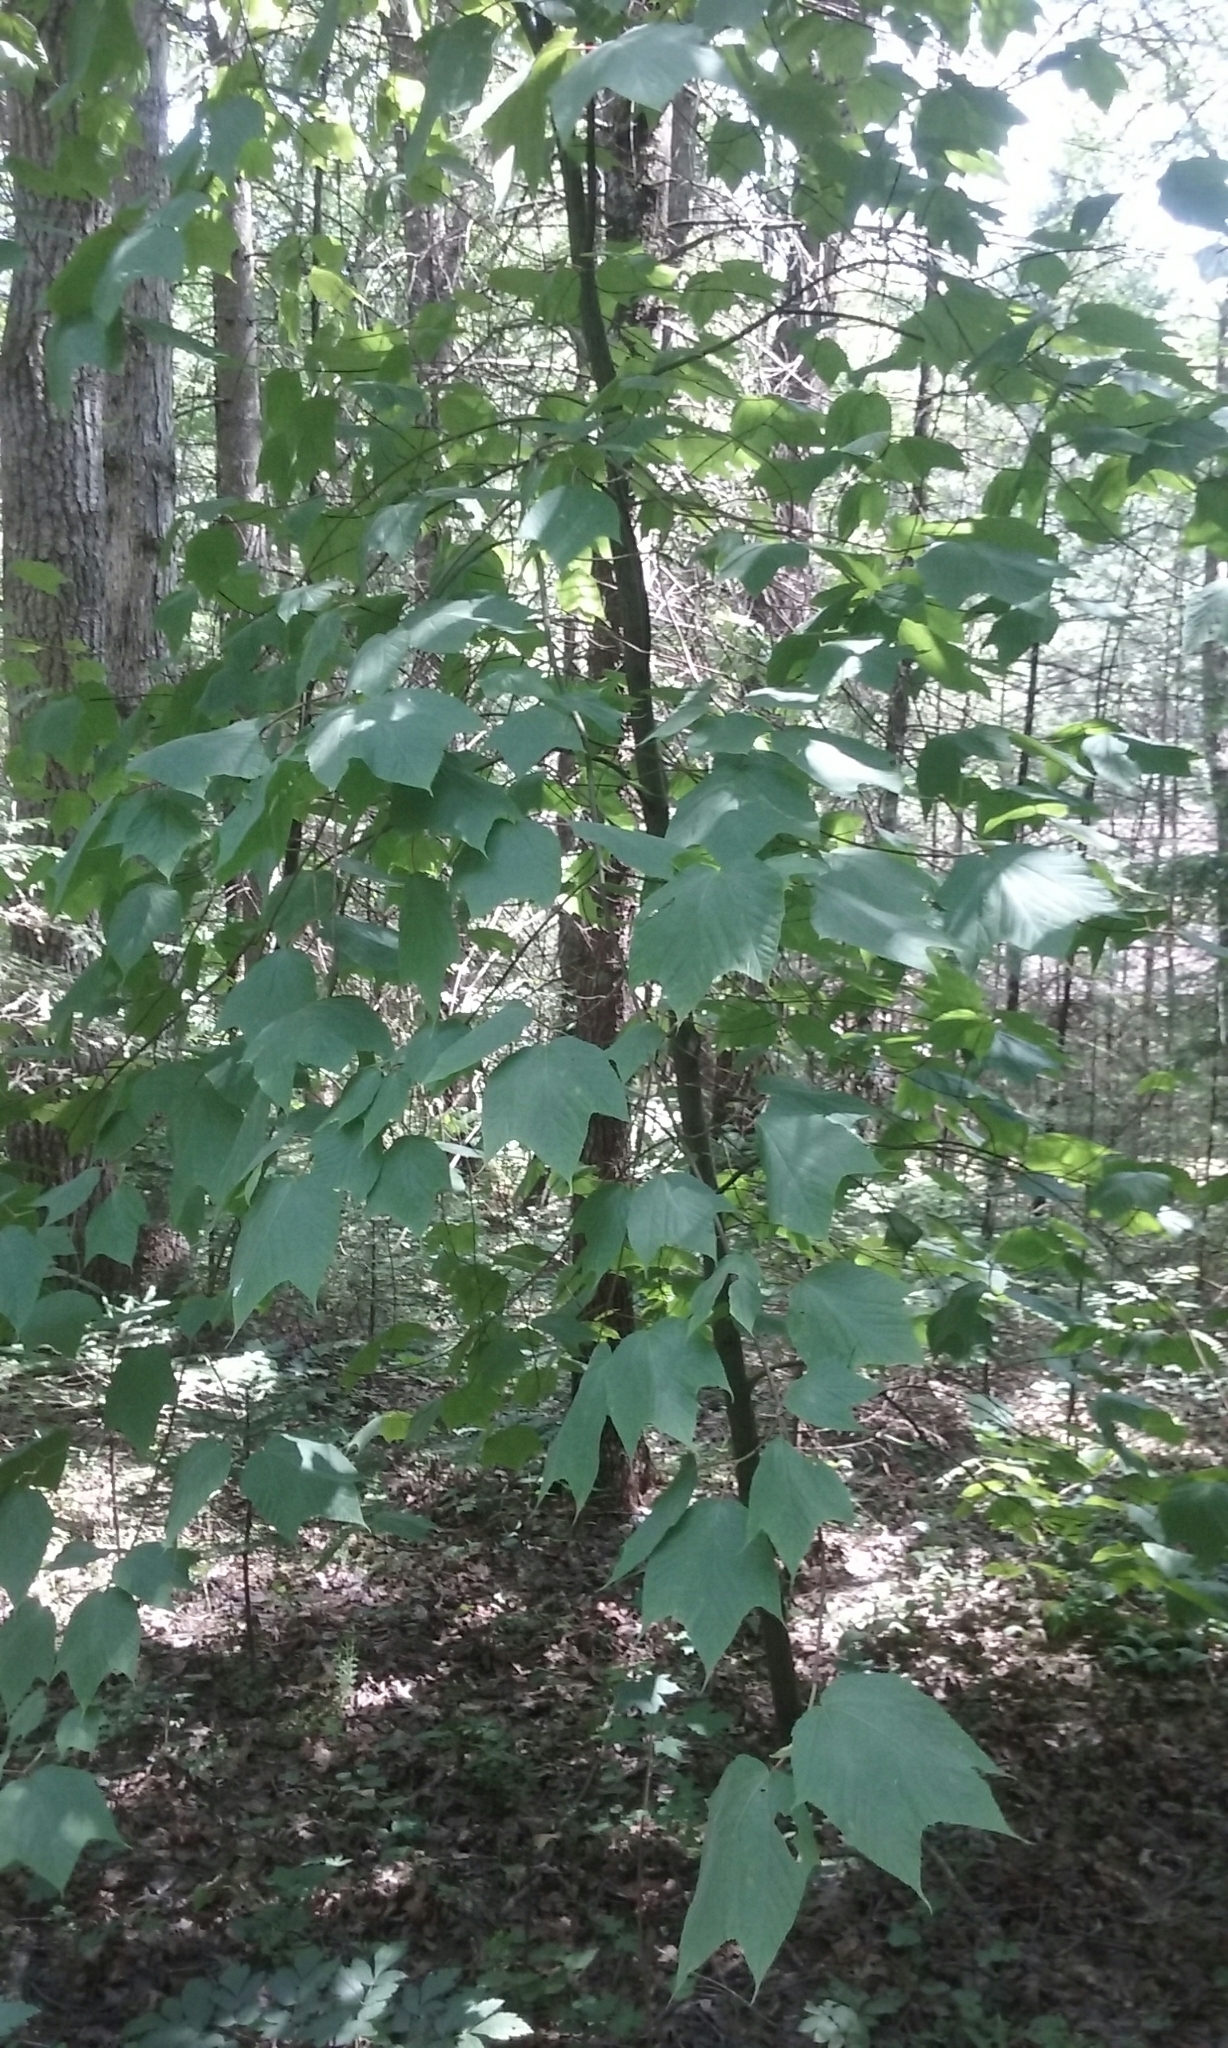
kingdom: Plantae
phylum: Tracheophyta
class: Magnoliopsida
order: Sapindales
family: Sapindaceae
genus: Acer
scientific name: Acer pensylvanicum
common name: Moosewood
